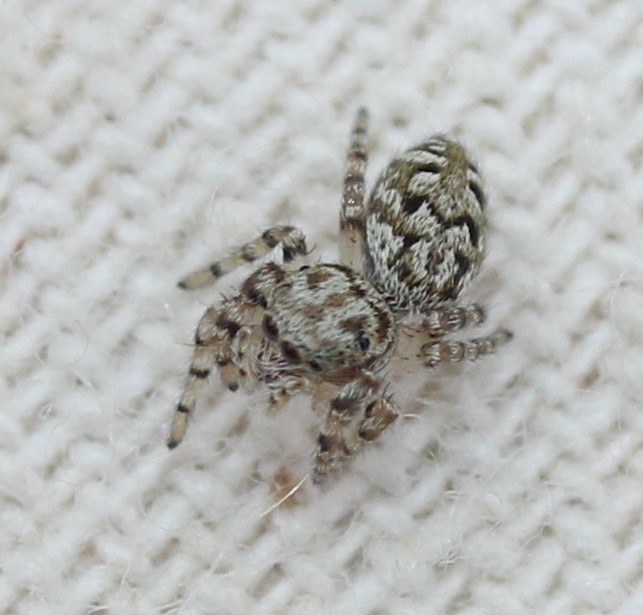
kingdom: Animalia
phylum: Arthropoda
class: Arachnida
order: Araneae
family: Salticidae
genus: Pelegrina
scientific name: Pelegrina galathea
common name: Jumping spiders
